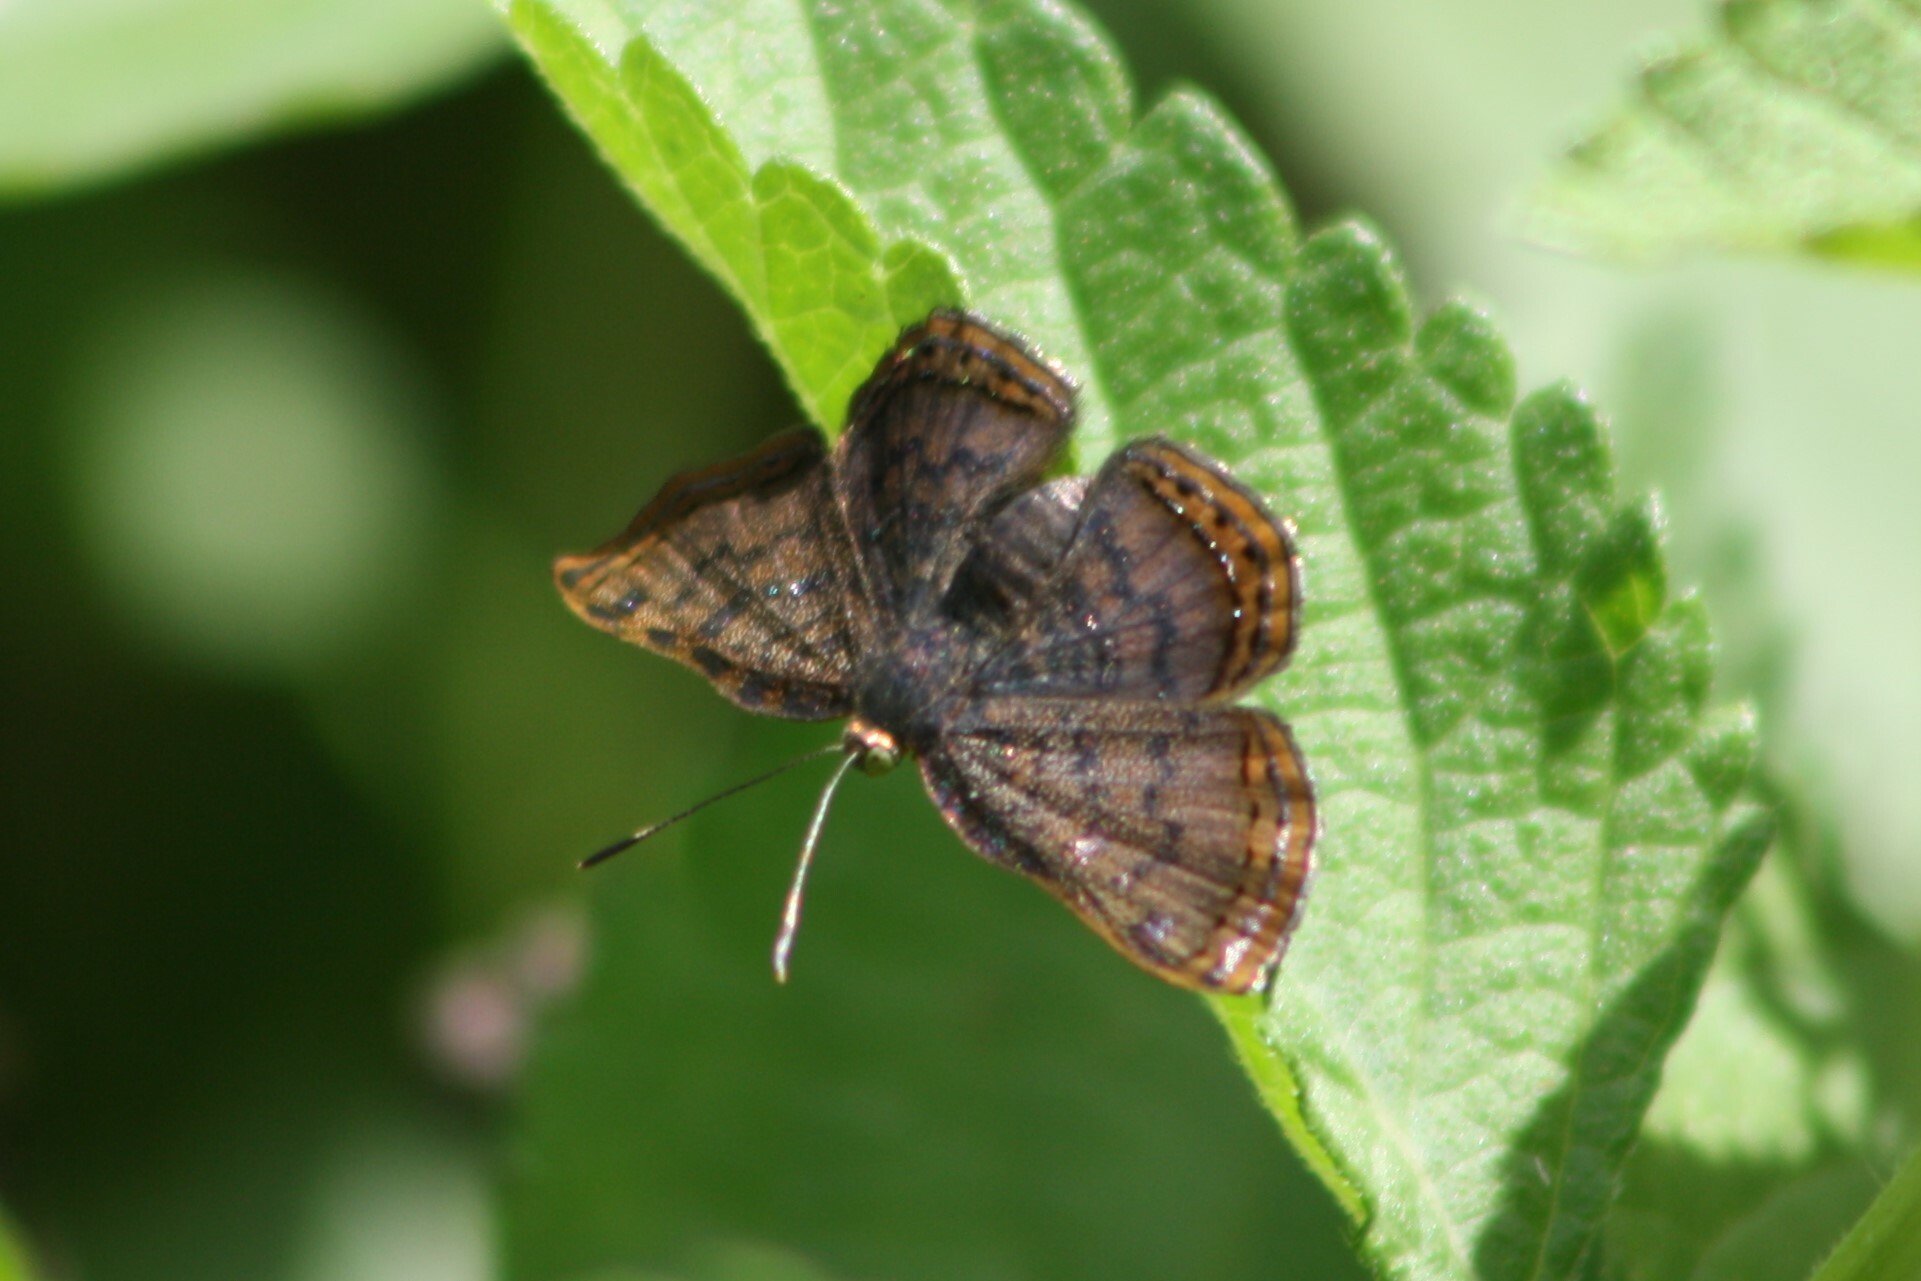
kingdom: Animalia
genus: Caria
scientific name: Caria ino
